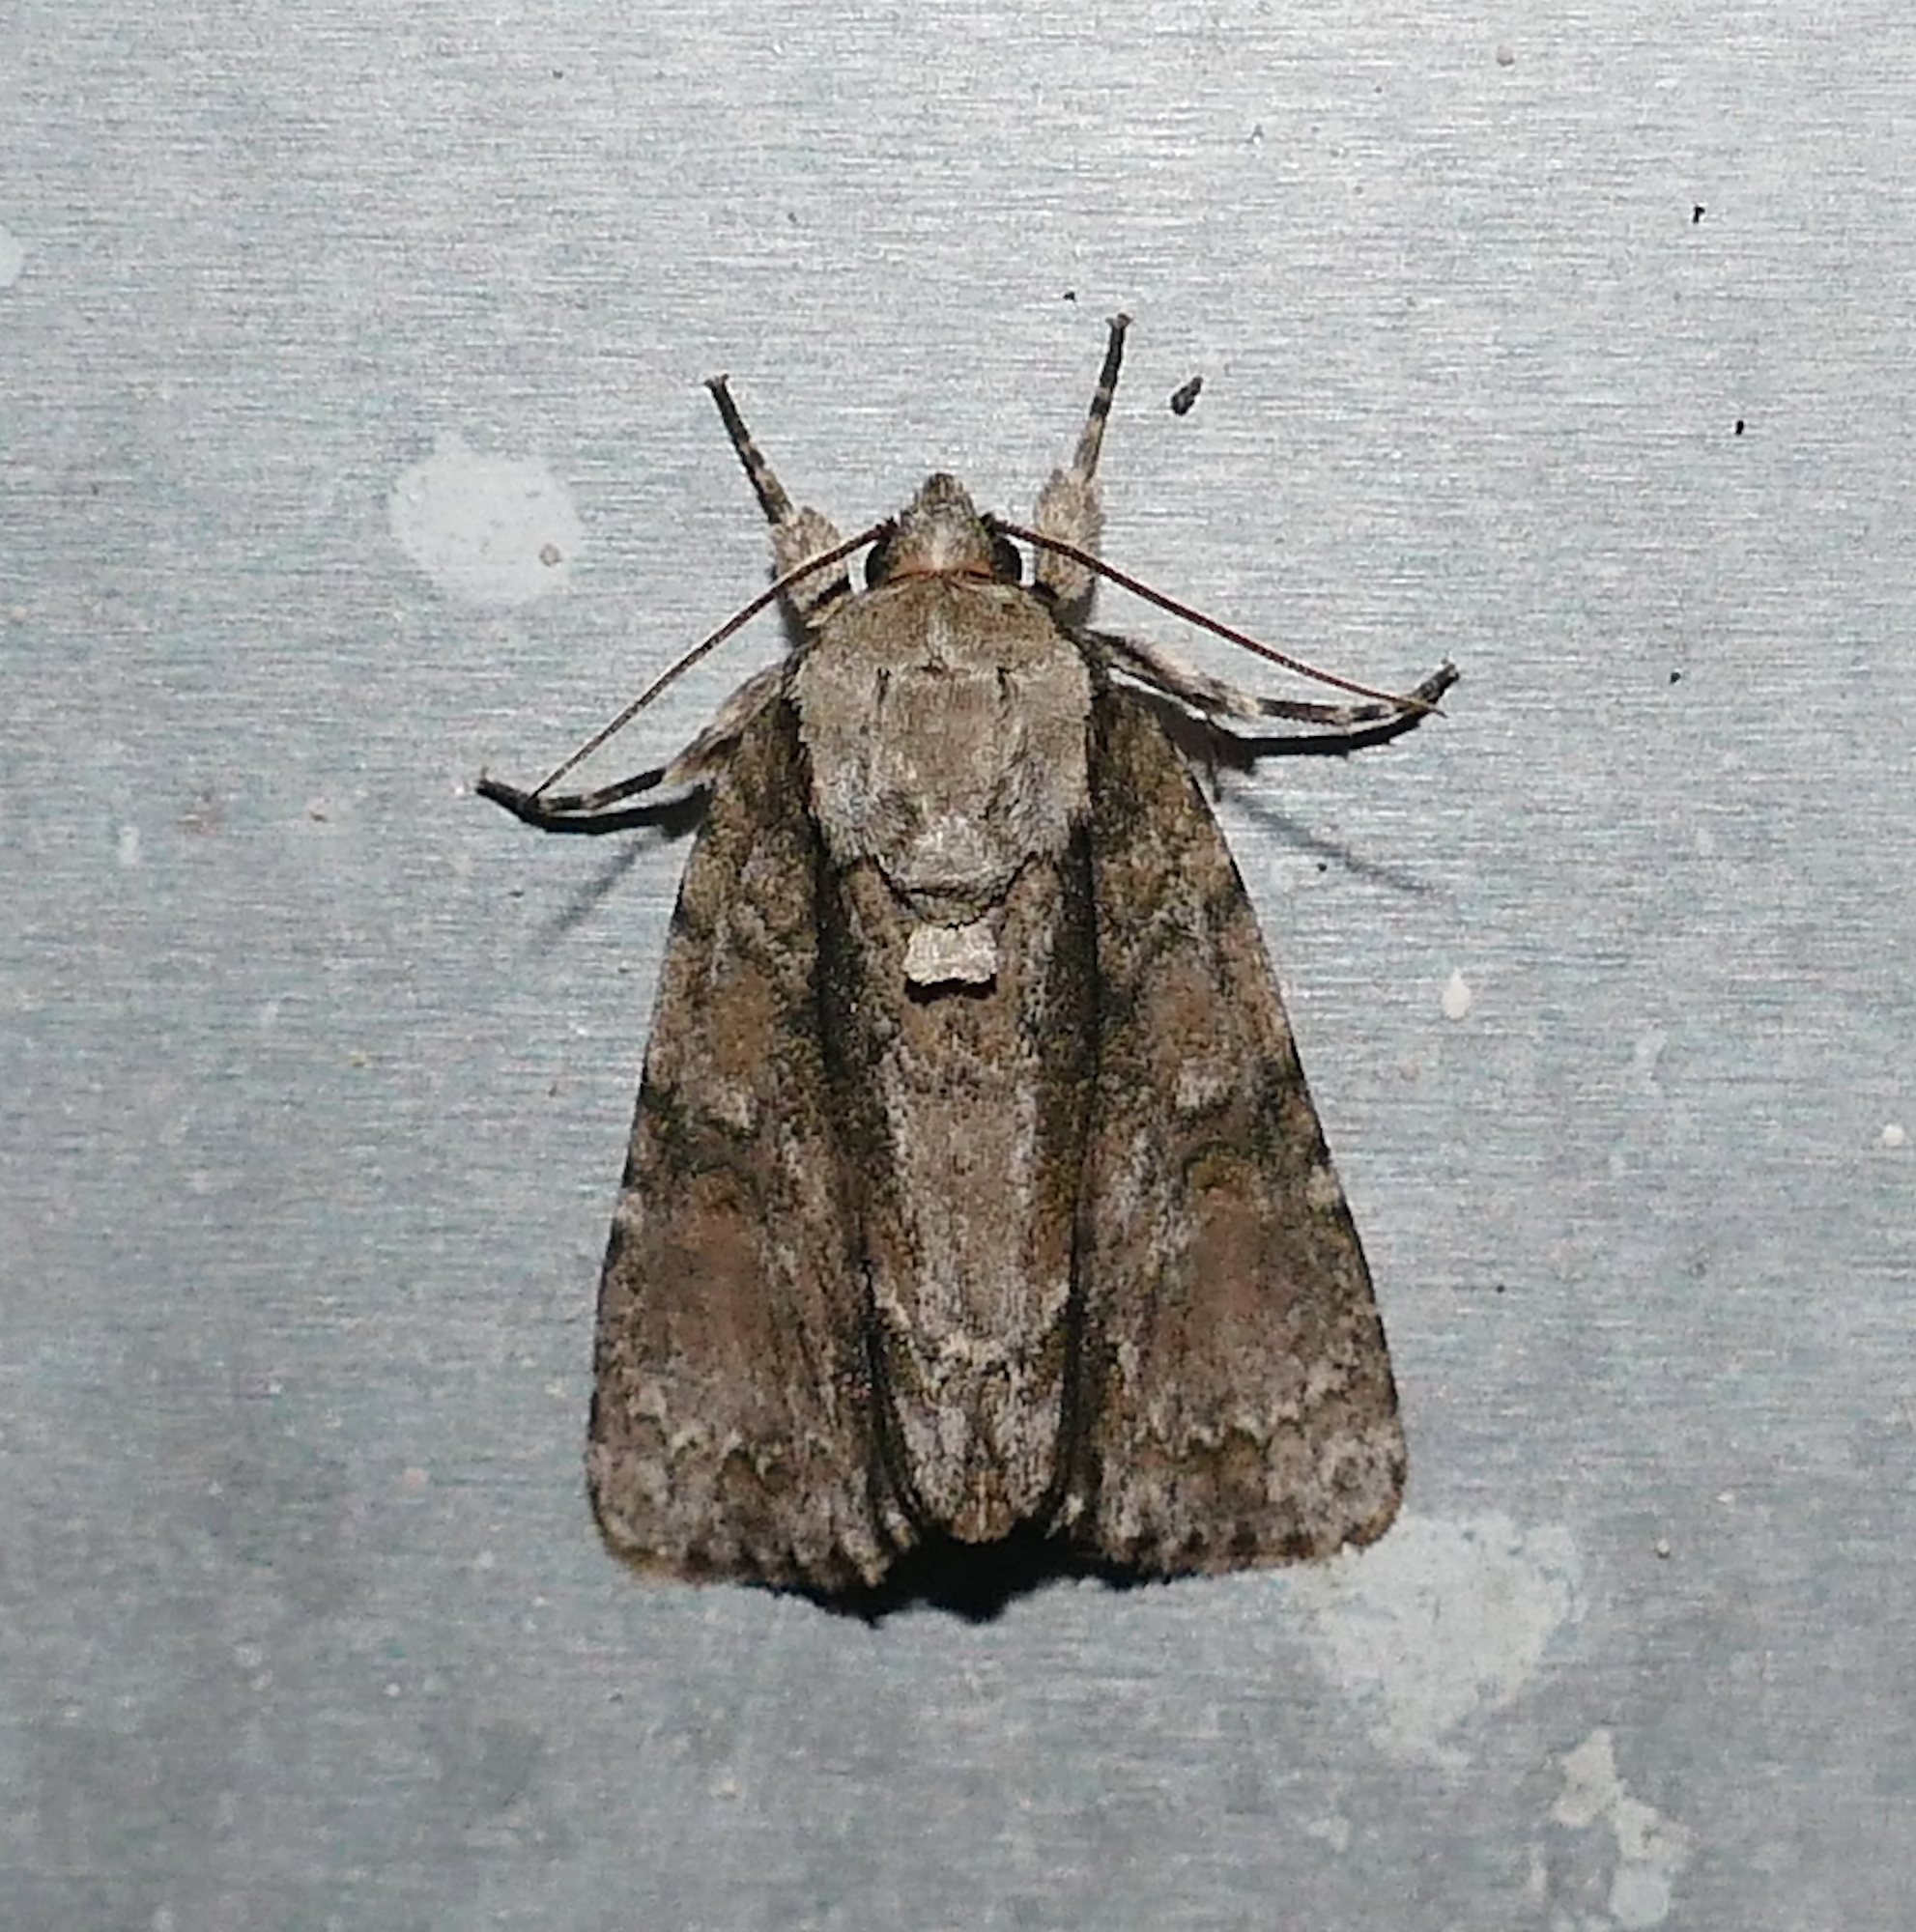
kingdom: Animalia
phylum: Arthropoda
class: Insecta
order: Lepidoptera
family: Noctuidae
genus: Acronicta
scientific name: Acronicta connecta
